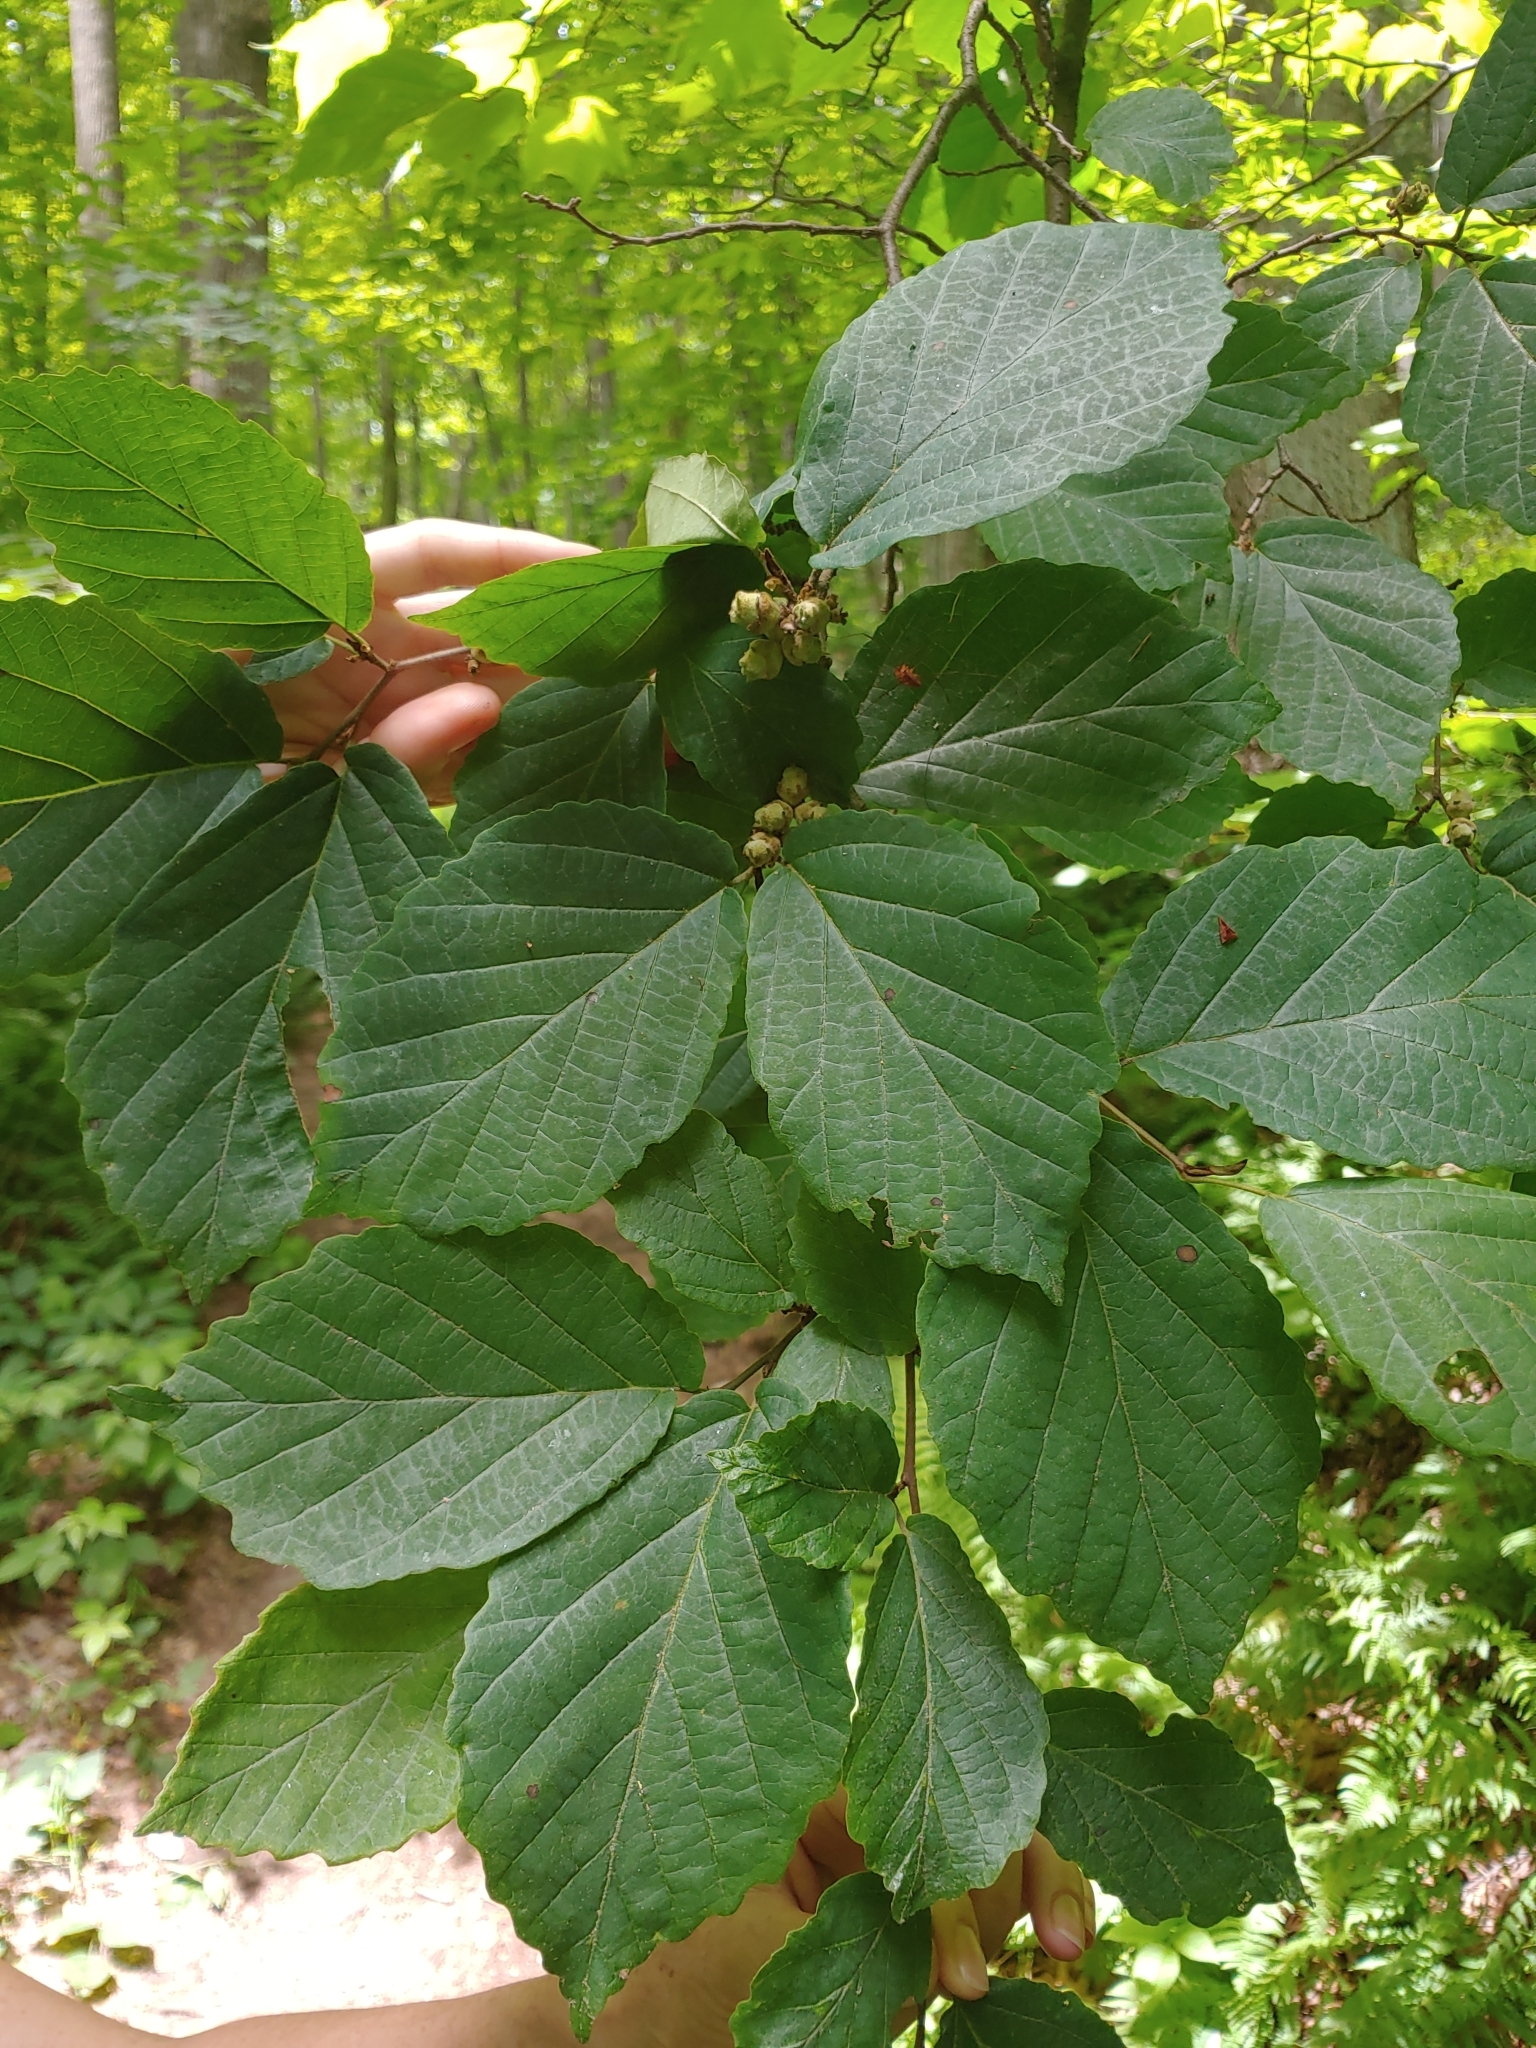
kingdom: Plantae
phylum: Tracheophyta
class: Magnoliopsida
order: Saxifragales
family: Hamamelidaceae
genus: Hamamelis
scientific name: Hamamelis virginiana
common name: Witch-hazel
